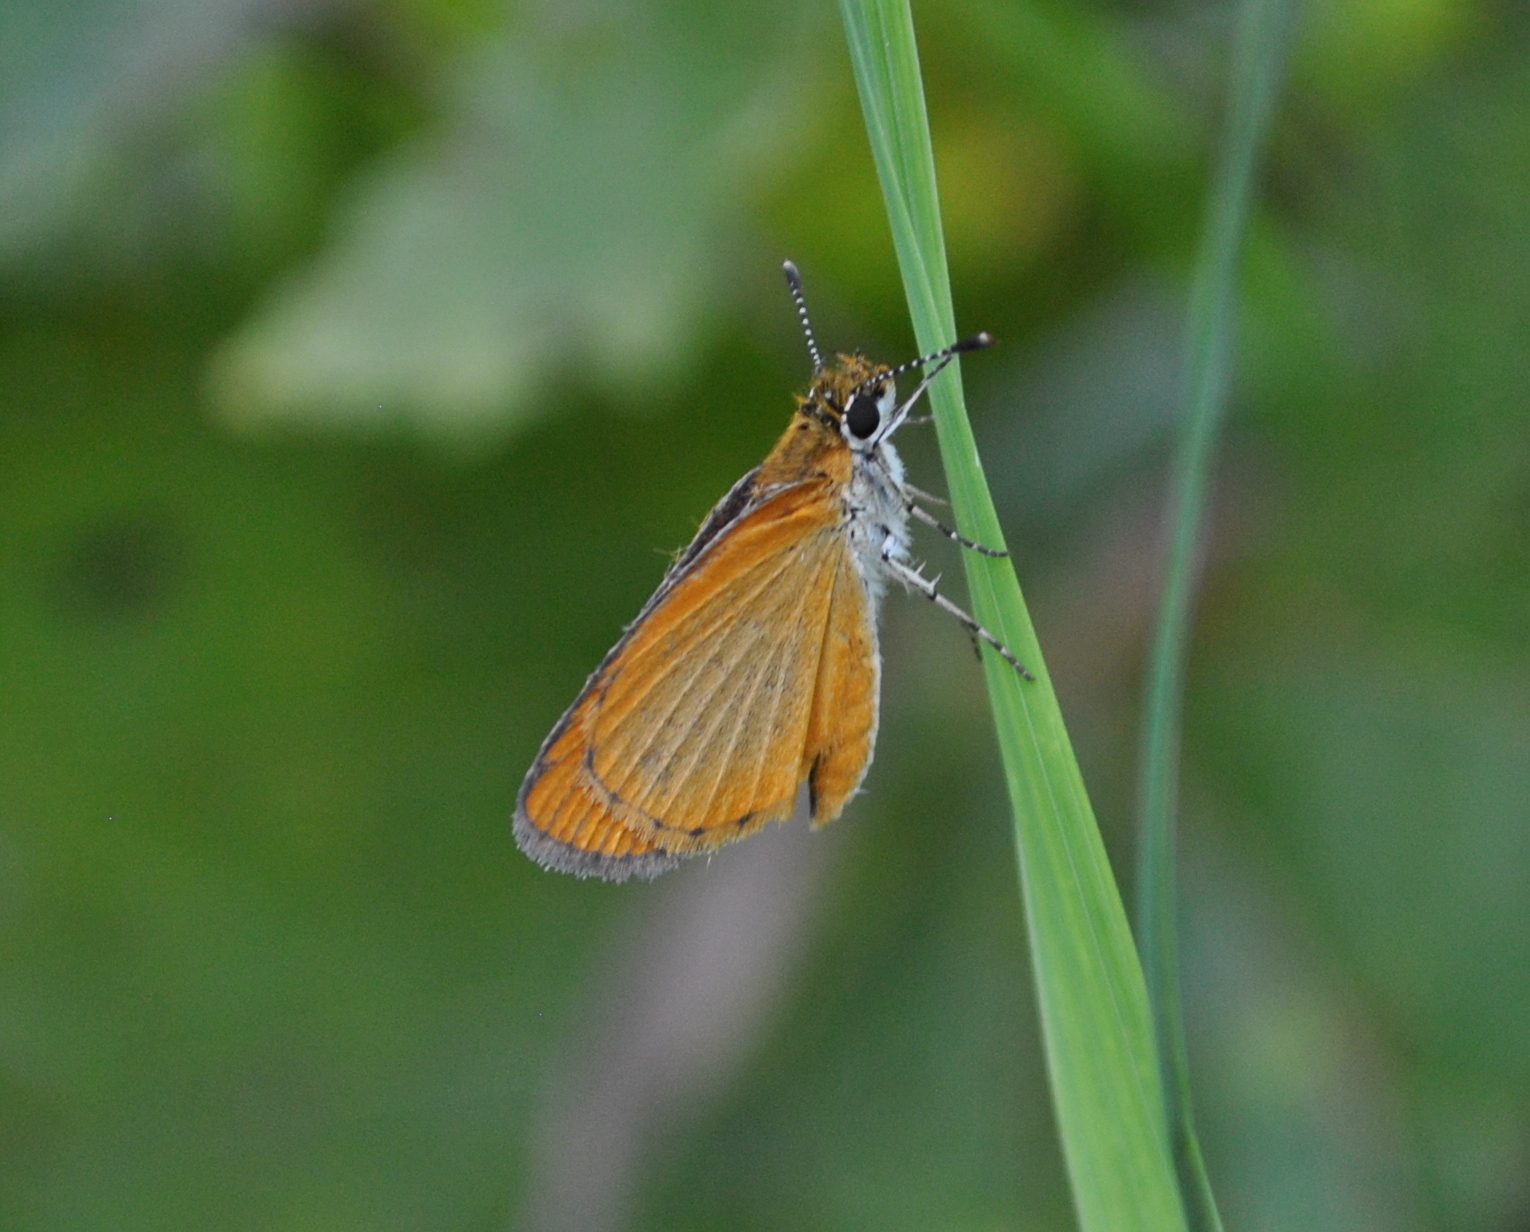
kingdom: Animalia
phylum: Arthropoda
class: Insecta
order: Lepidoptera
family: Hesperiidae
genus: Ancyloxypha
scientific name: Ancyloxypha numitor
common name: Least skipper
